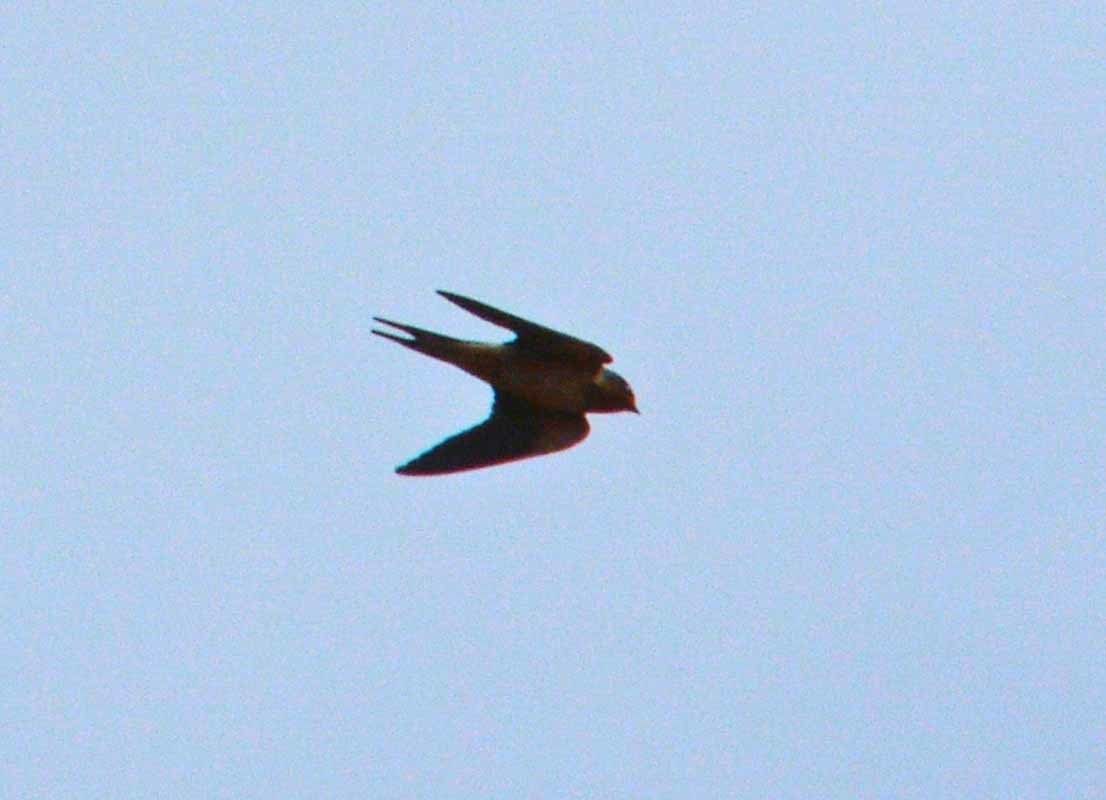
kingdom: Animalia
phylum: Chordata
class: Aves
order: Passeriformes
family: Hirundinidae
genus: Hirundo
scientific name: Hirundo rustica
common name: Barn swallow
